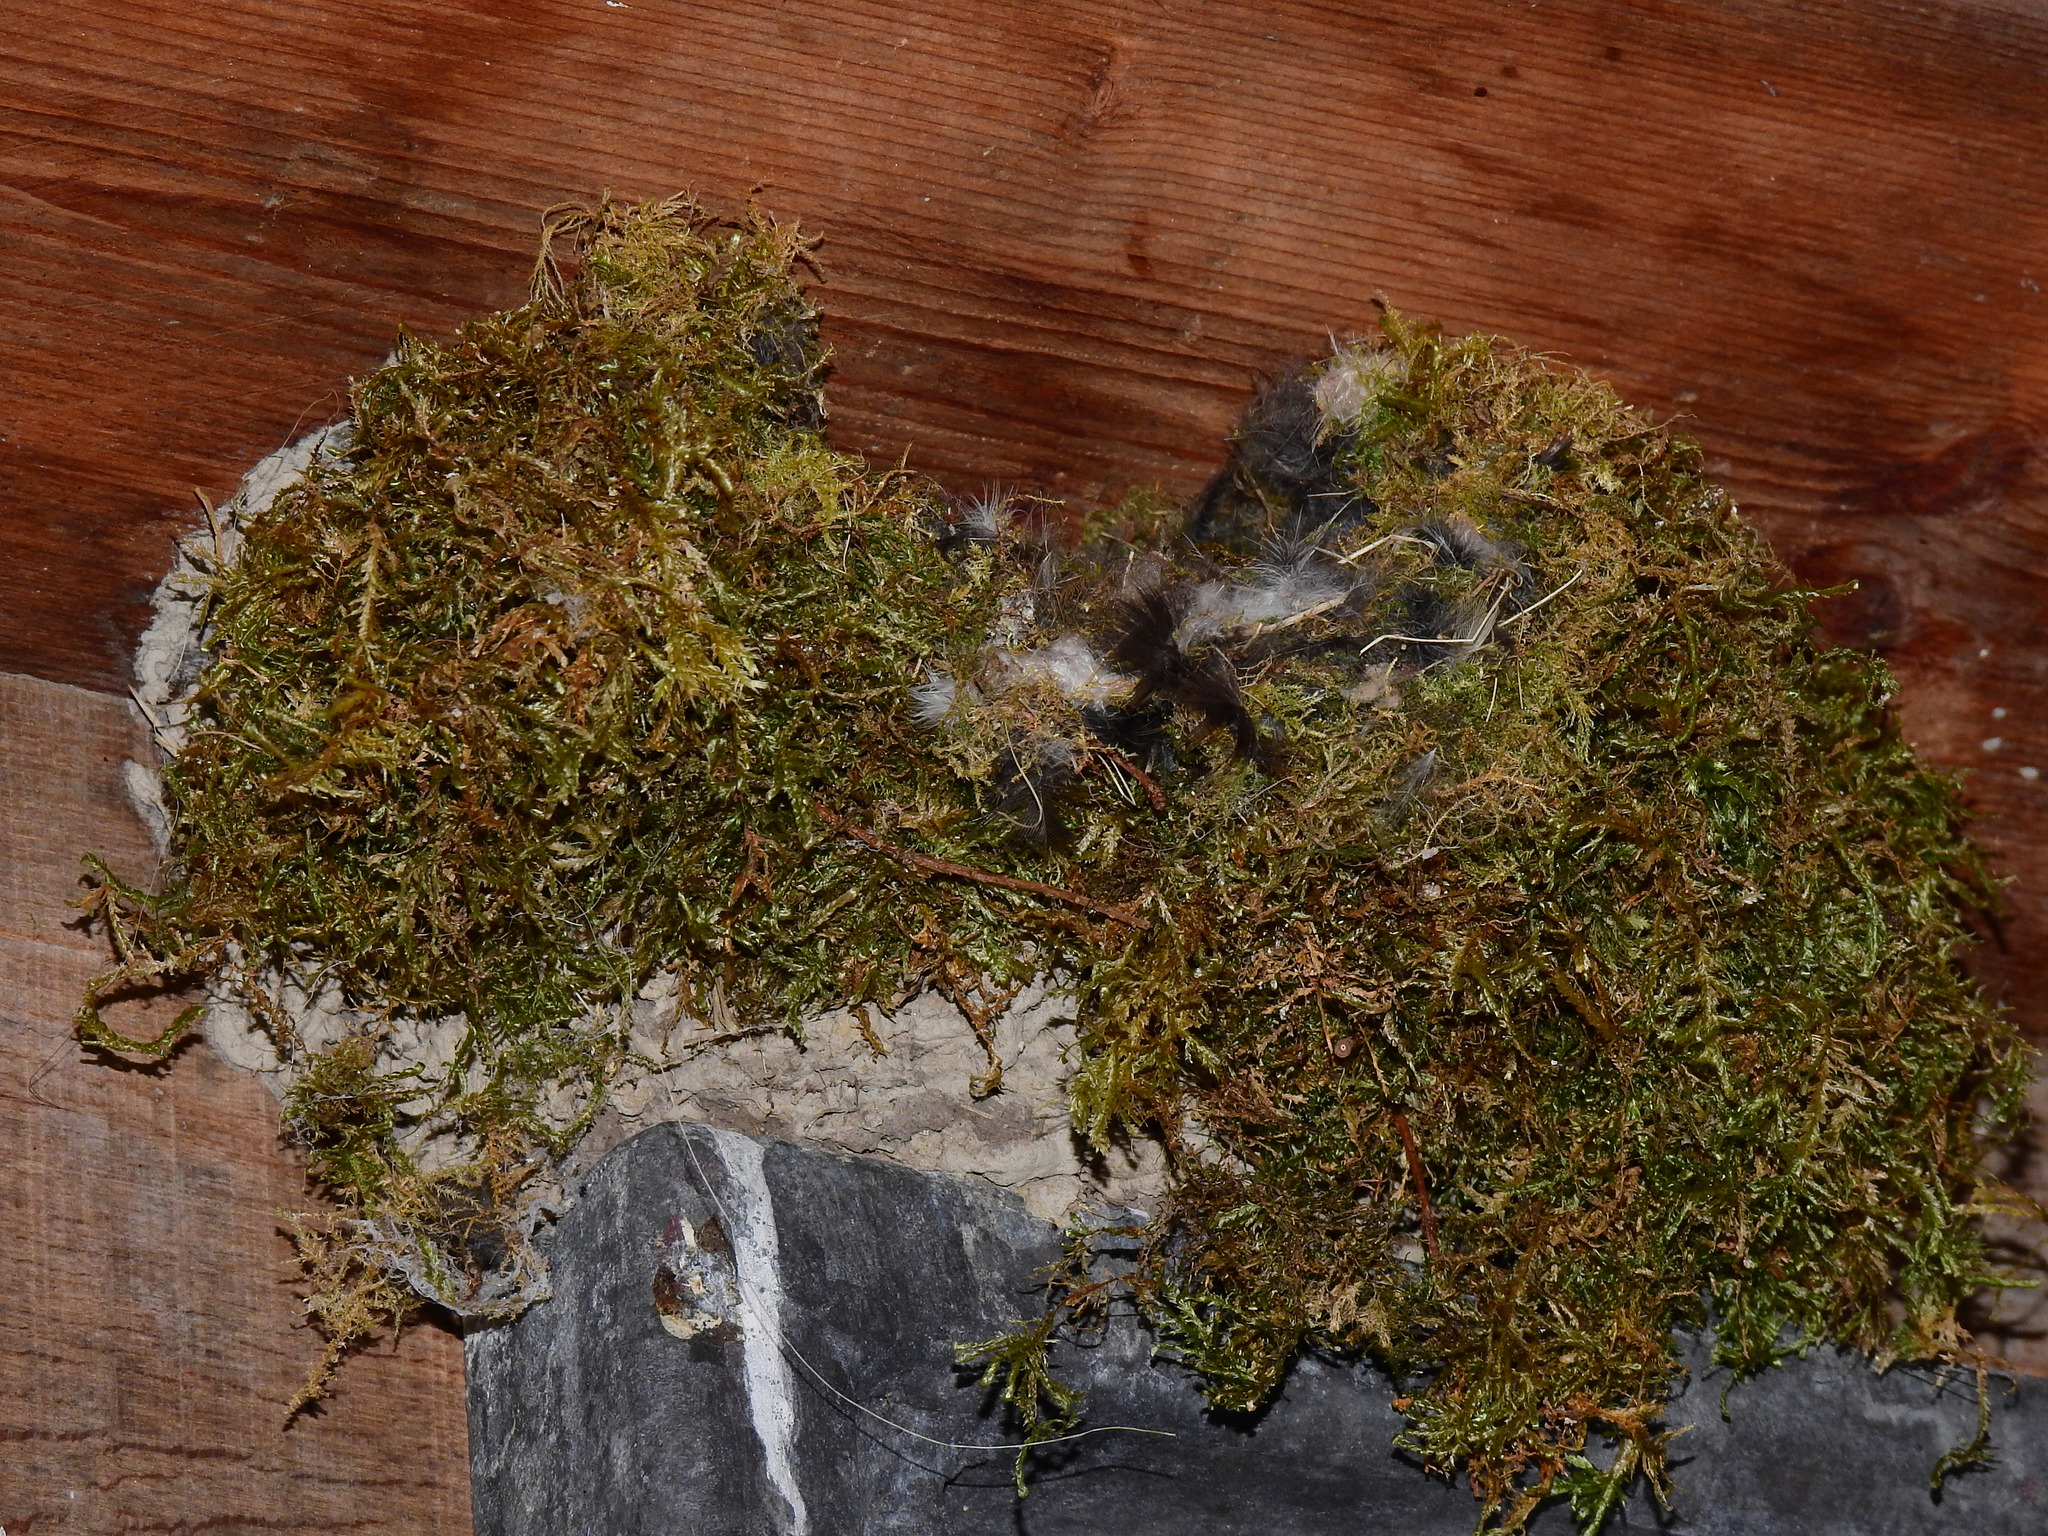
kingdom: Animalia
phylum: Chordata
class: Aves
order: Passeriformes
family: Troglodytidae
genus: Troglodytes
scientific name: Troglodytes troglodytes
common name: Eurasian wren
